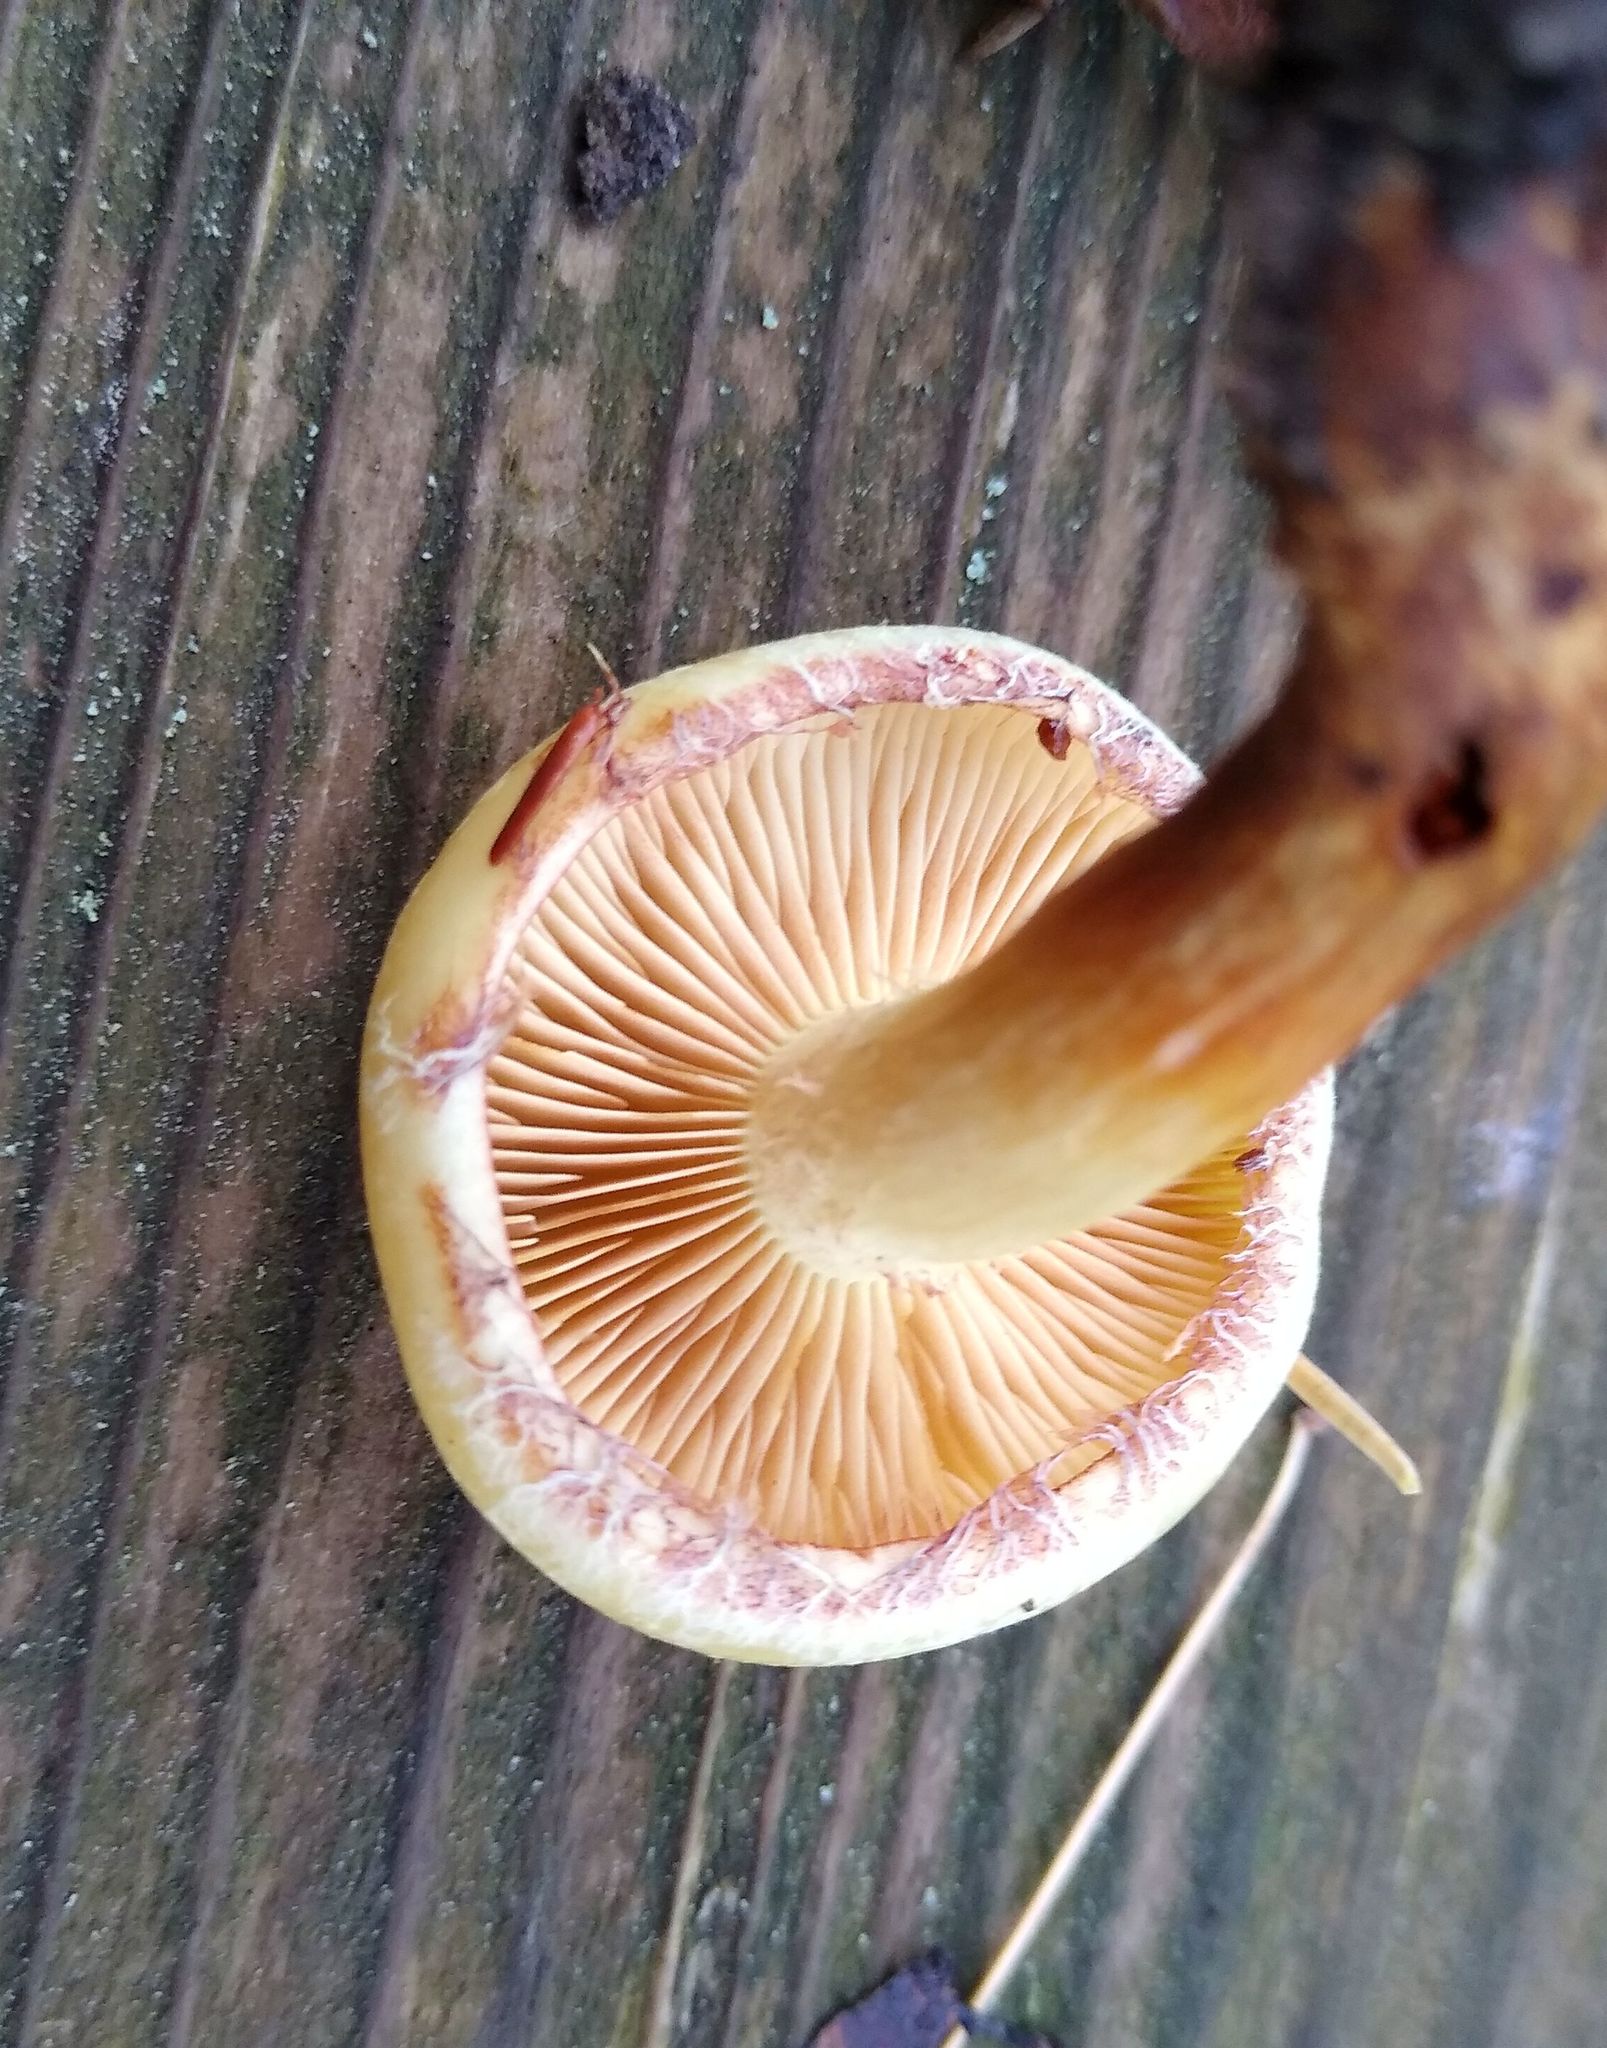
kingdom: Fungi
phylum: Basidiomycota
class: Agaricomycetes
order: Agaricales
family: Hymenogastraceae
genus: Flammula
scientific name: Flammula alnicola
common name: Alder scalycap
